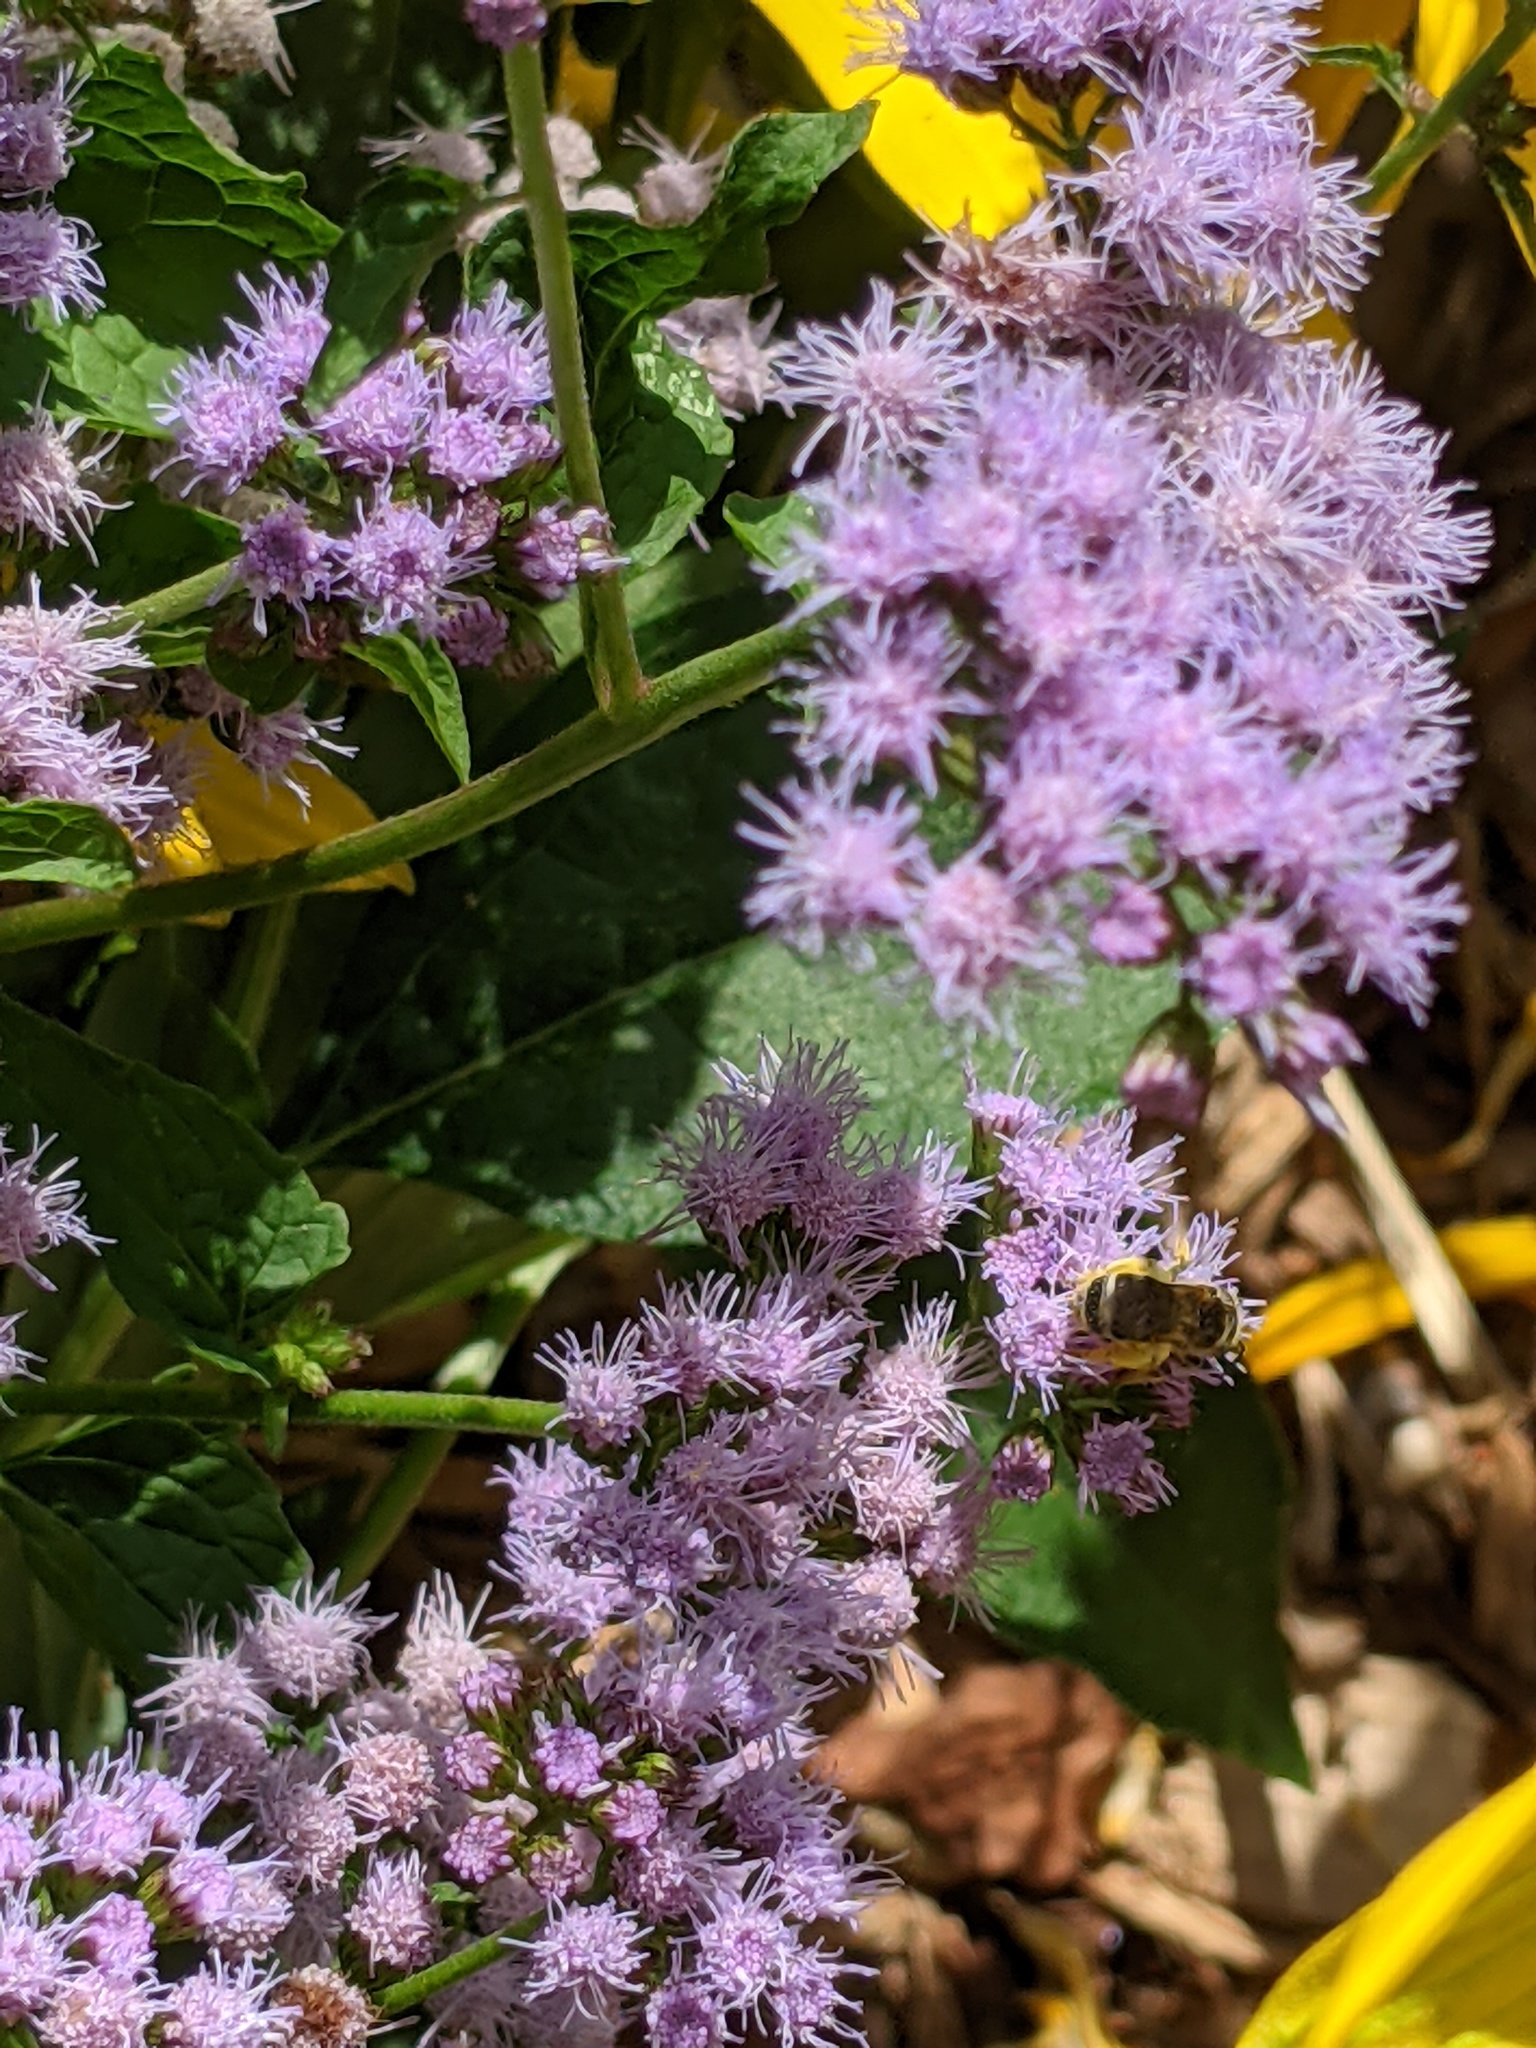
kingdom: Animalia
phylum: Arthropoda
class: Insecta
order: Hymenoptera
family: Halictidae
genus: Halictus
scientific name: Halictus ligatus
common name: Ligated furrow bee
